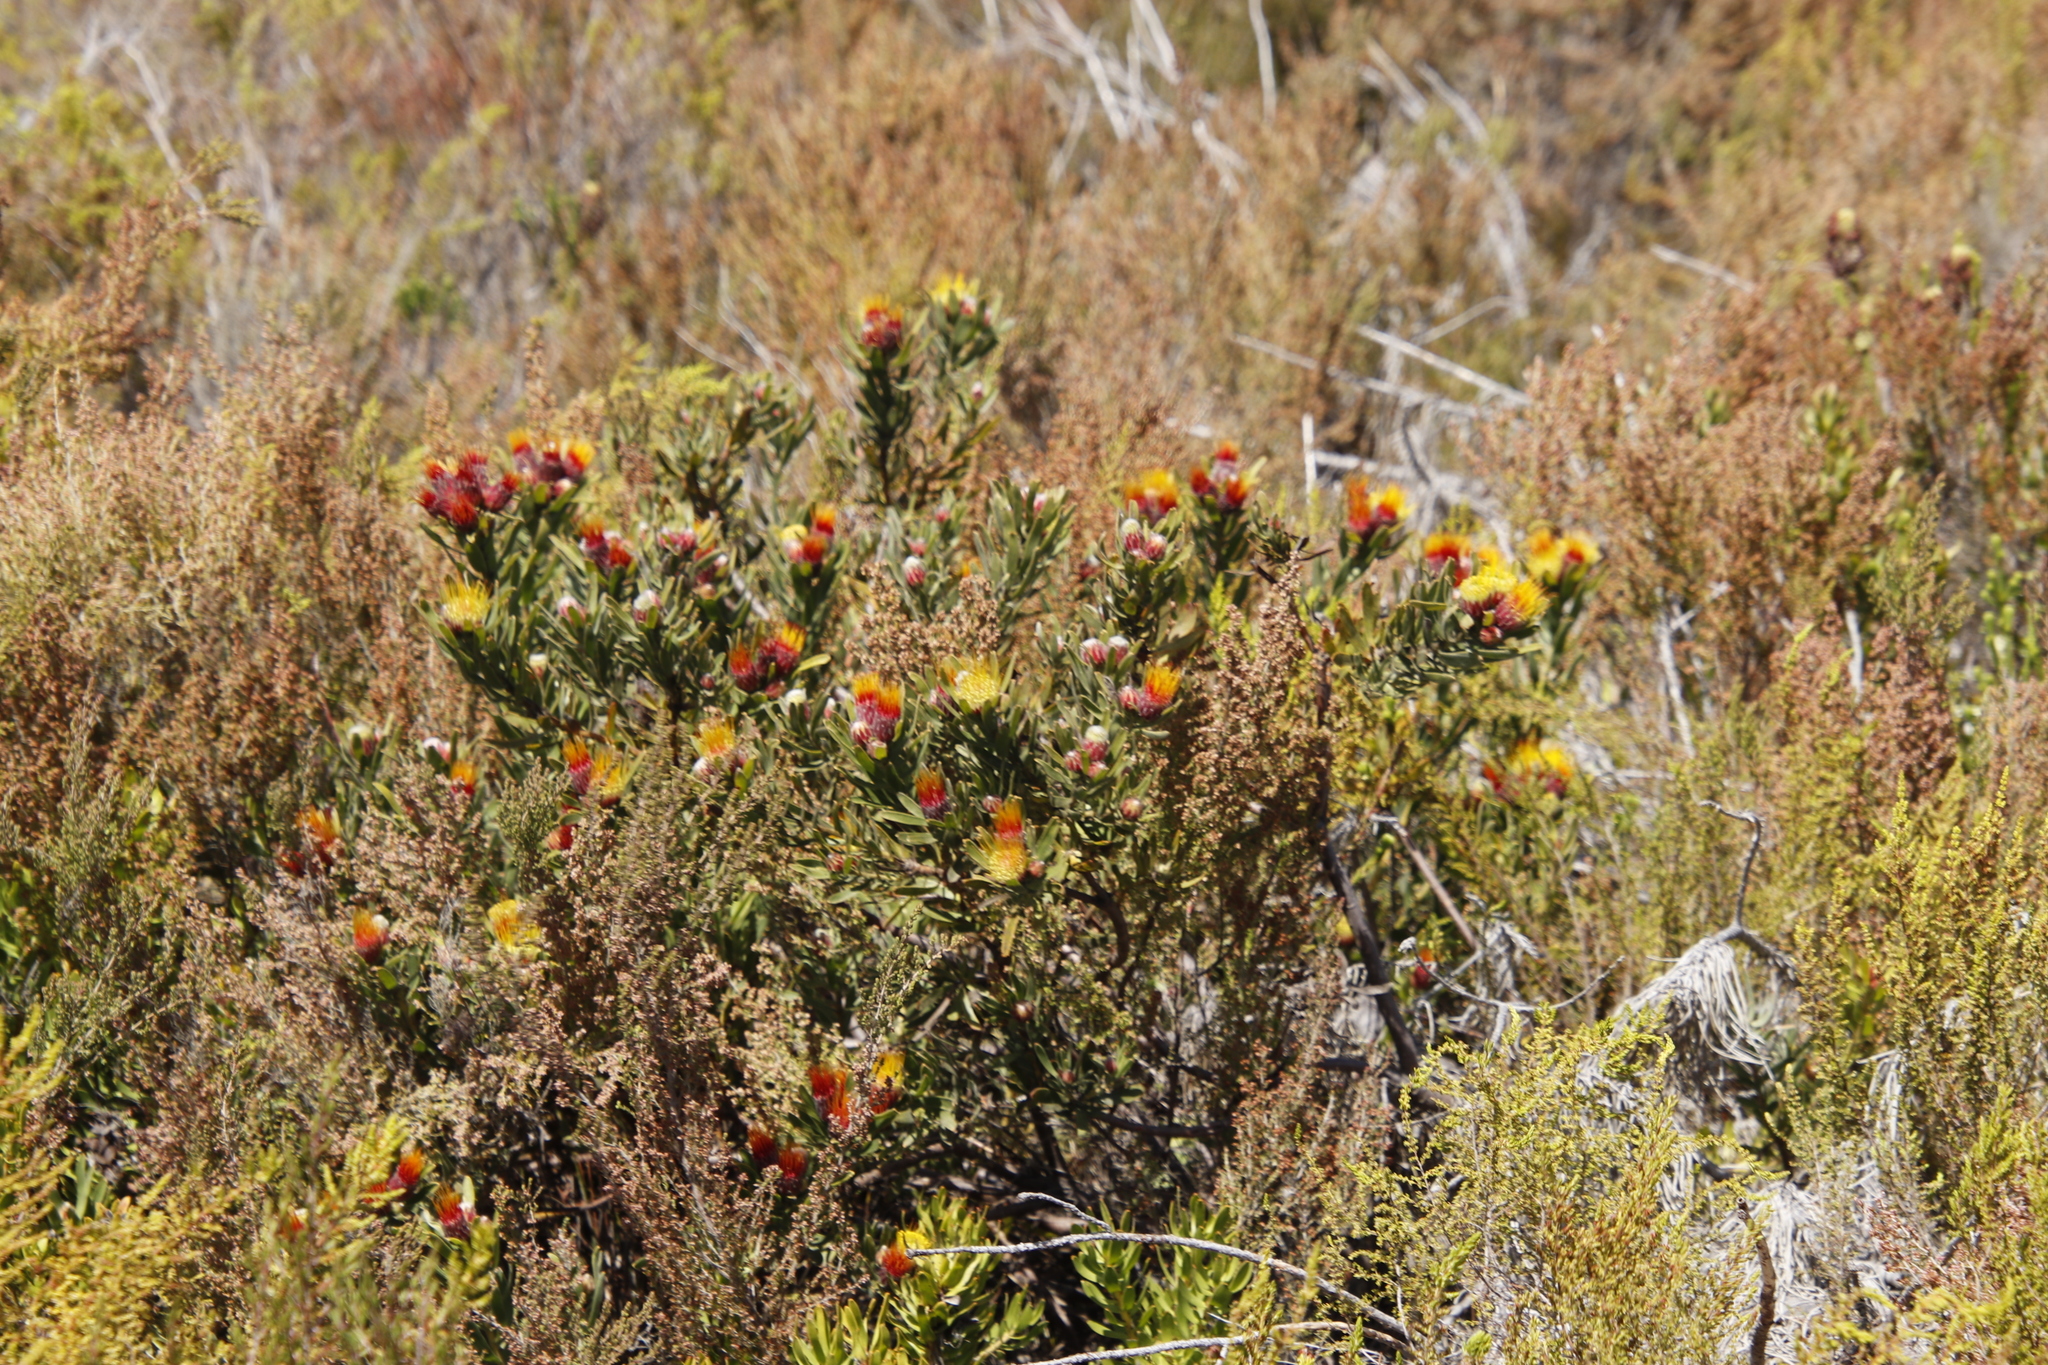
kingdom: Plantae
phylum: Tracheophyta
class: Magnoliopsida
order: Proteales
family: Proteaceae
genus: Leucospermum
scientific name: Leucospermum oleifolium
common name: Matches
